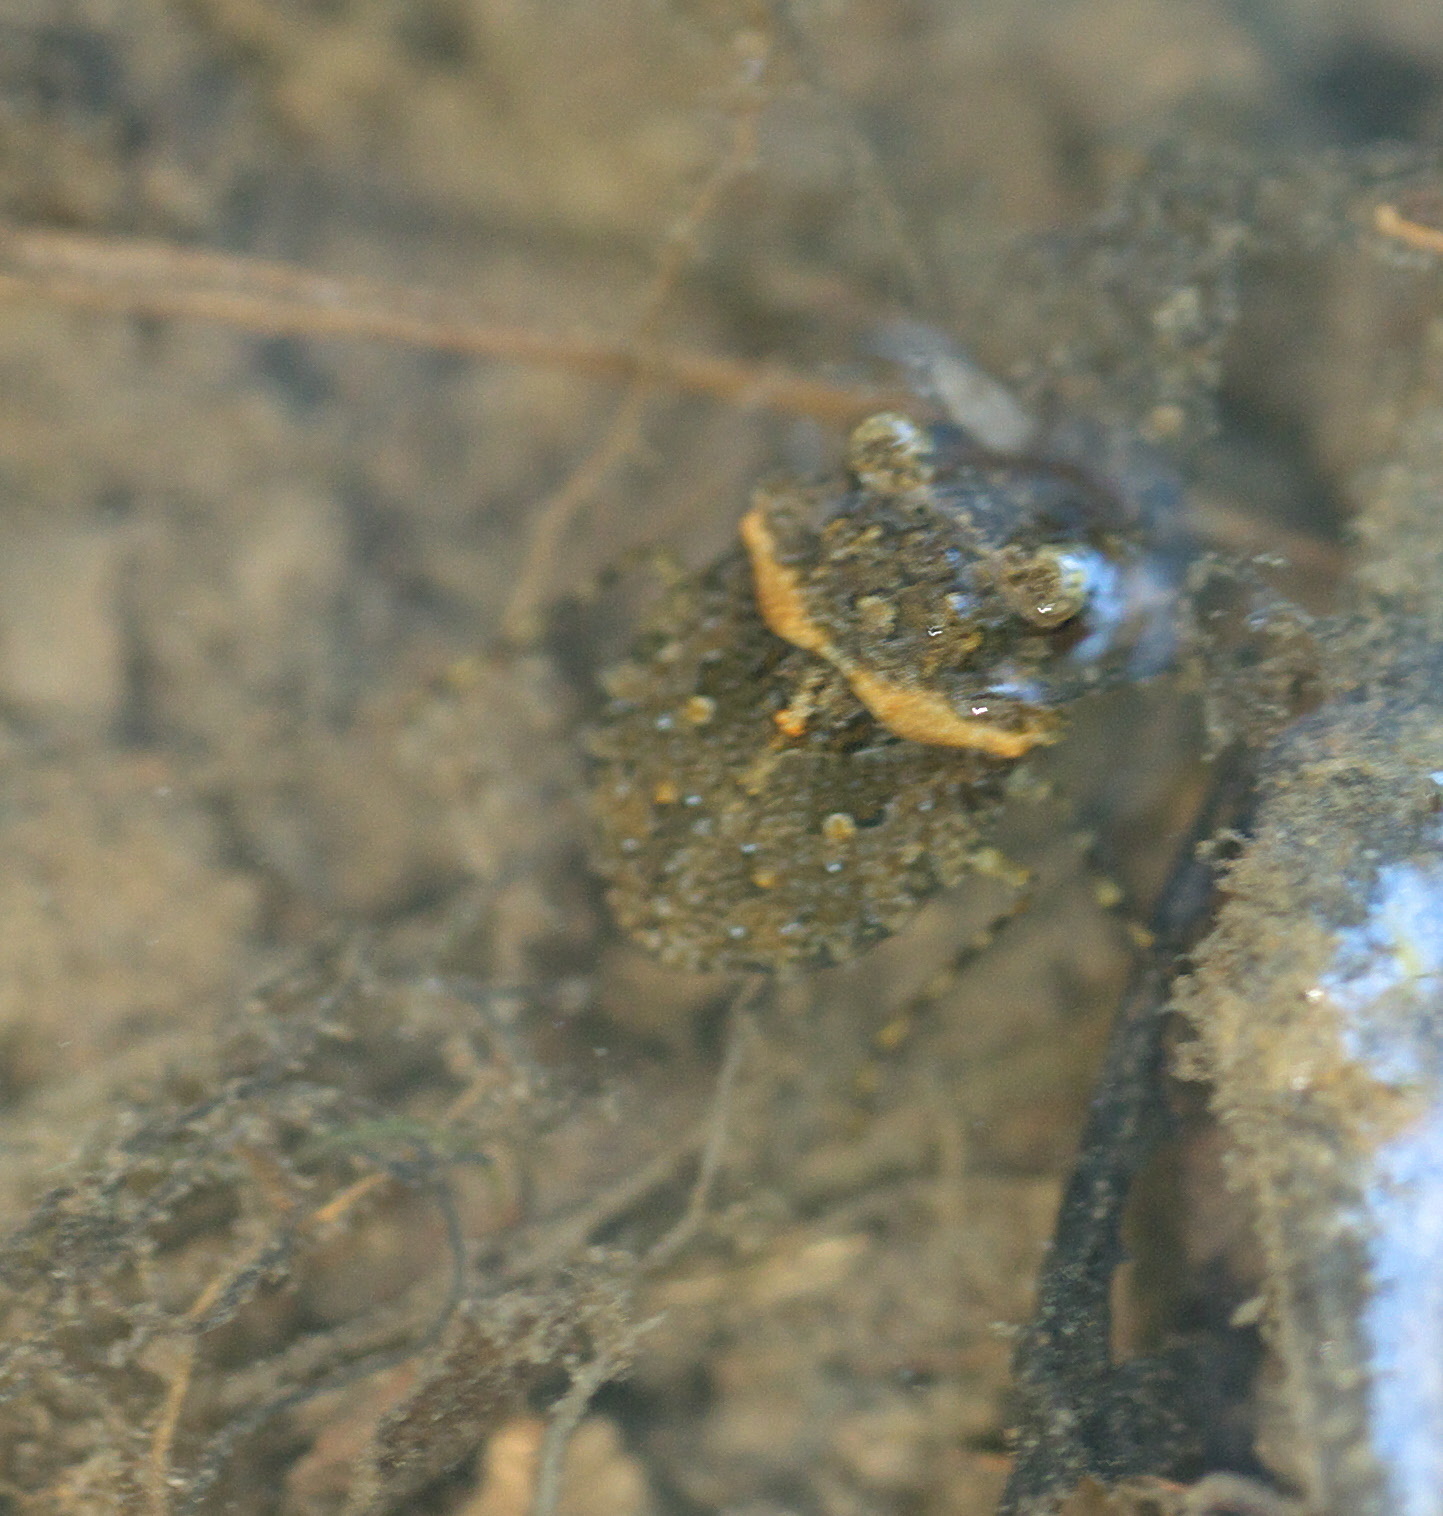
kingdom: Animalia
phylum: Arthropoda
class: Insecta
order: Hemiptera
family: Gelastocoridae
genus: Gelastocoris
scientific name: Gelastocoris oculatus
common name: Toad bug
